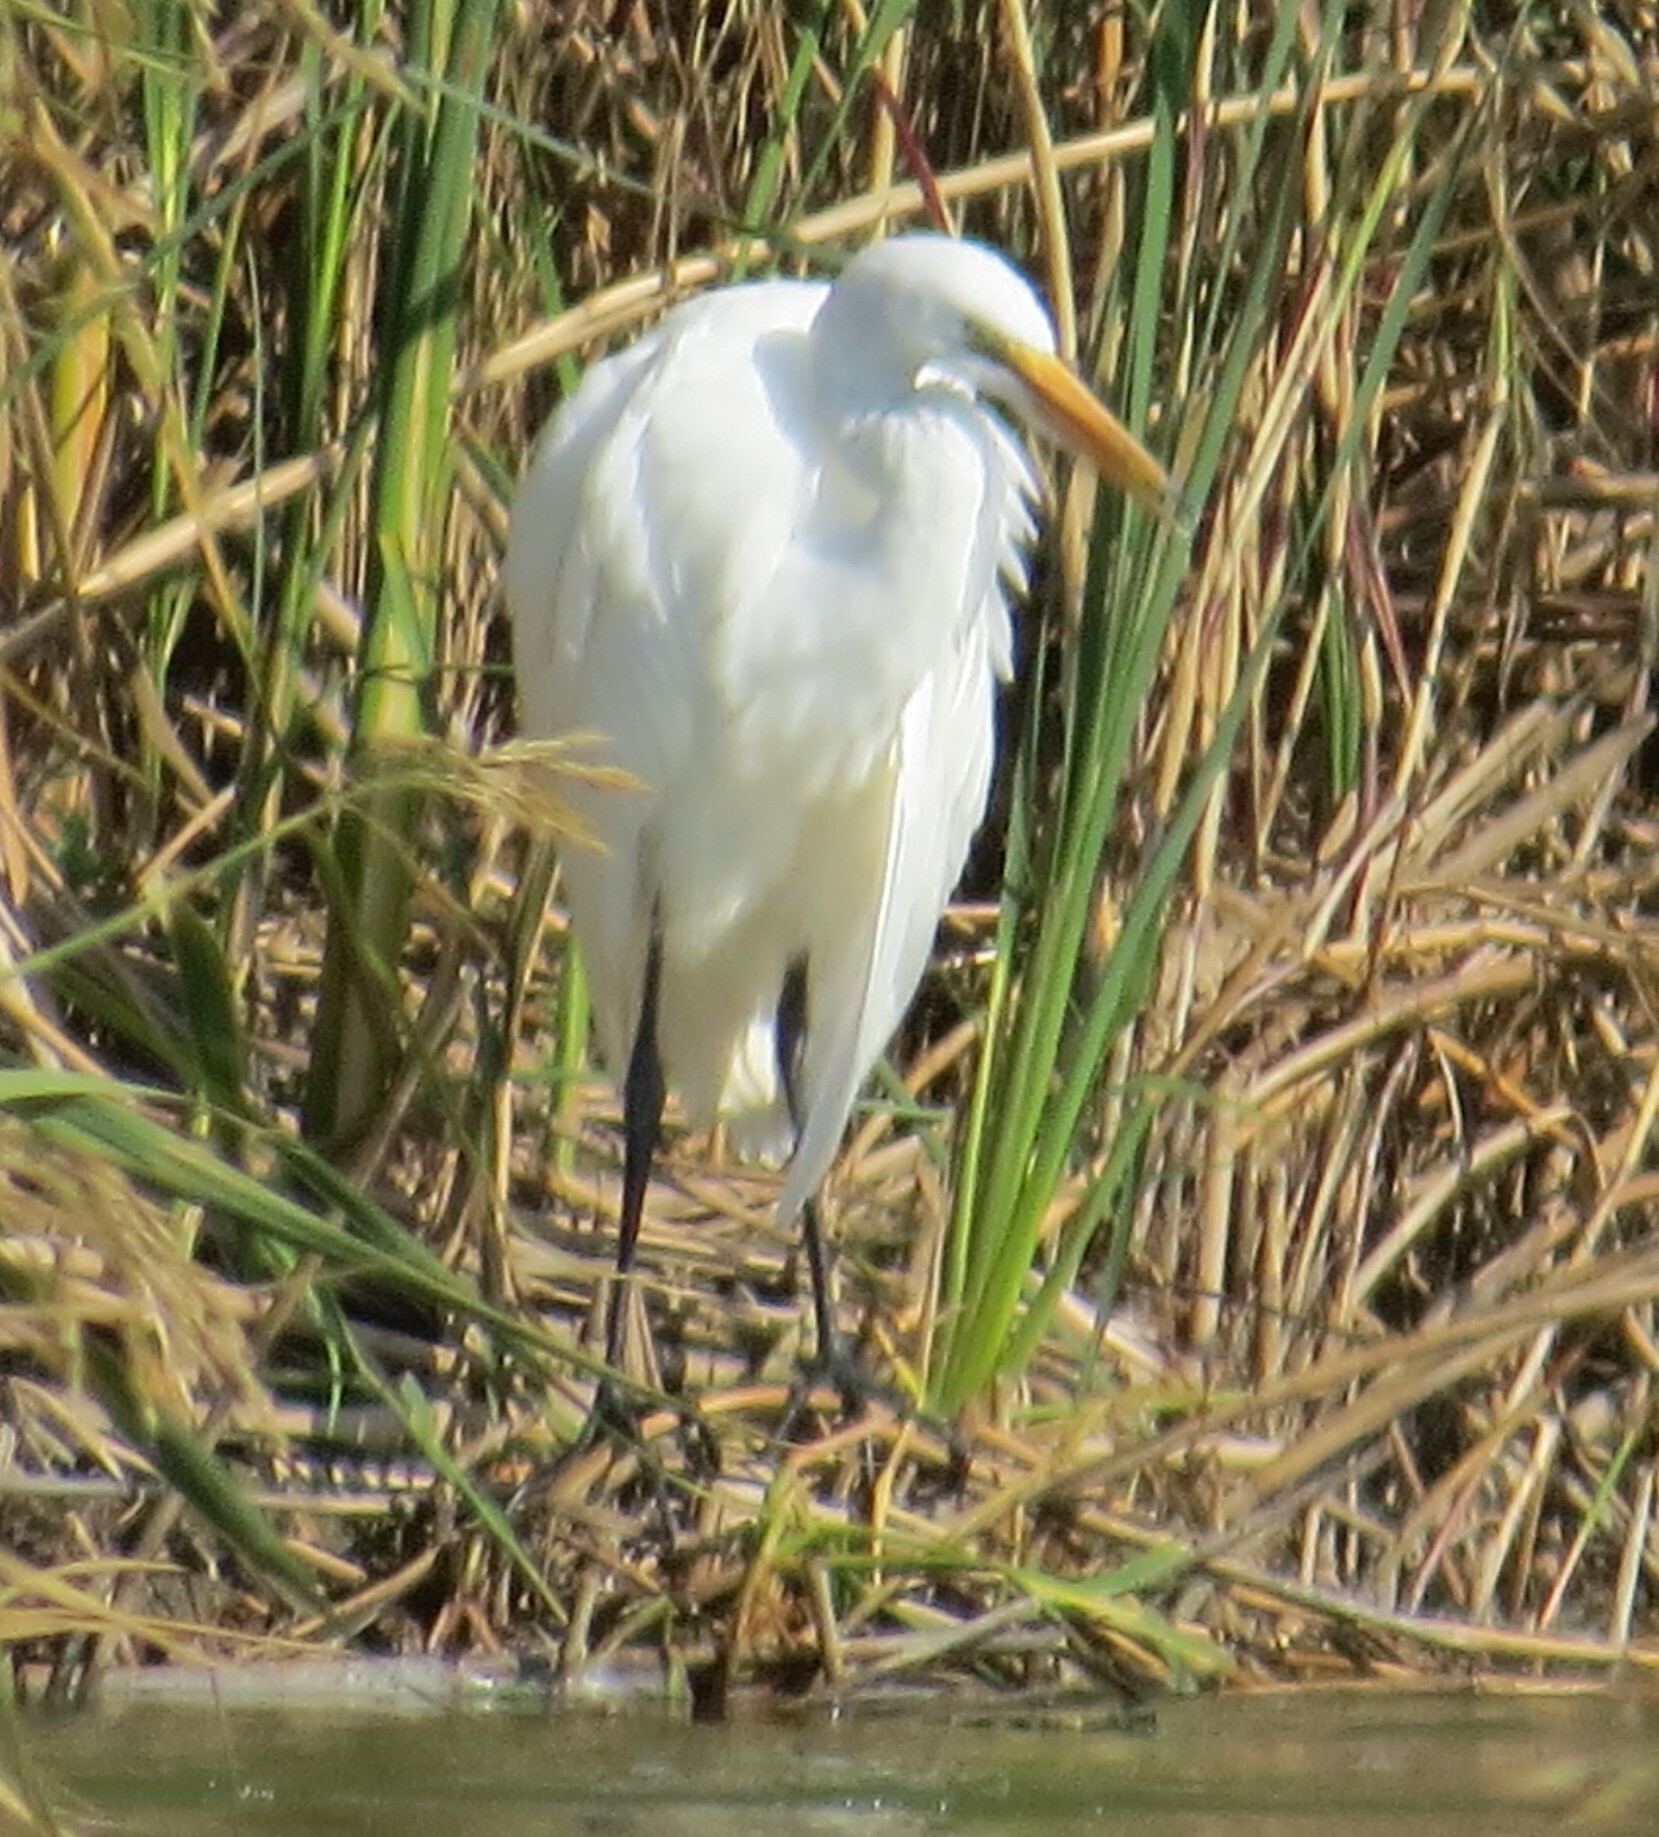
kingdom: Animalia
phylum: Chordata
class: Aves
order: Pelecaniformes
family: Ardeidae
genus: Ardea
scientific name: Ardea alba
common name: Great egret
